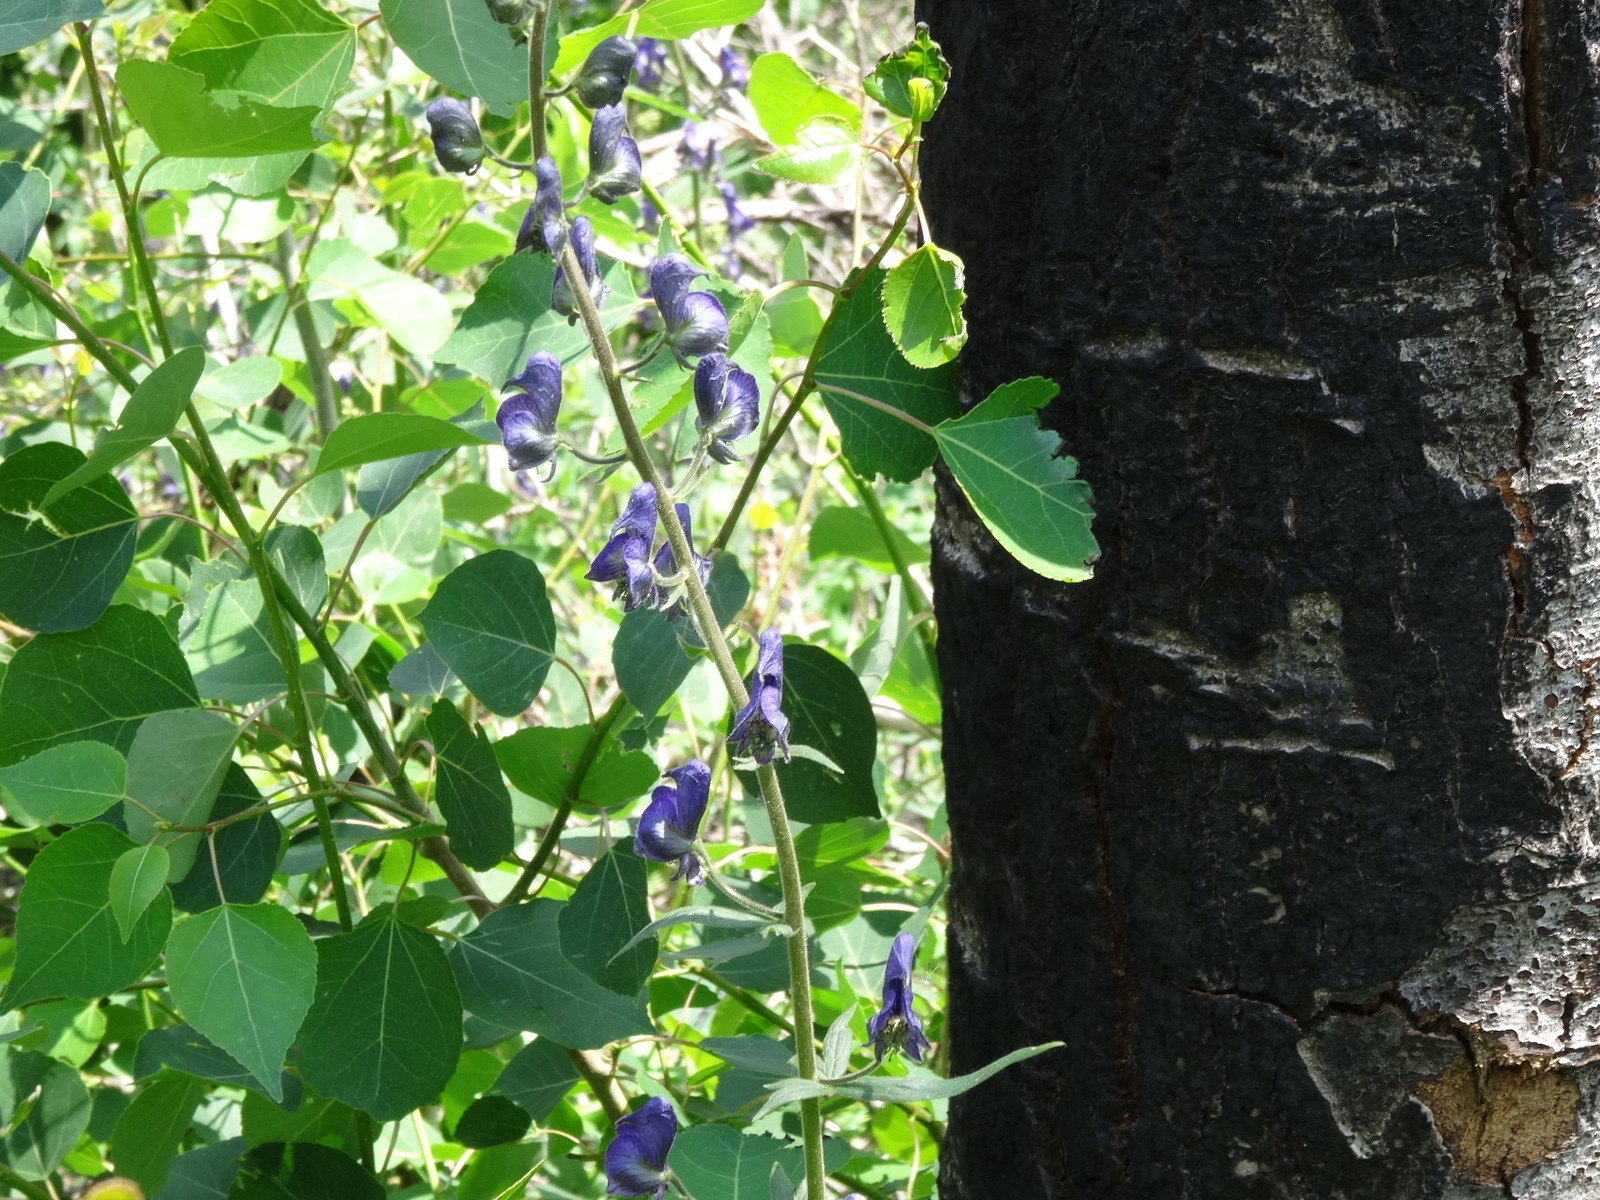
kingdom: Plantae
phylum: Tracheophyta
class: Magnoliopsida
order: Ranunculales
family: Ranunculaceae
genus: Aconitum
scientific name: Aconitum columbianum
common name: Columbia aconite
